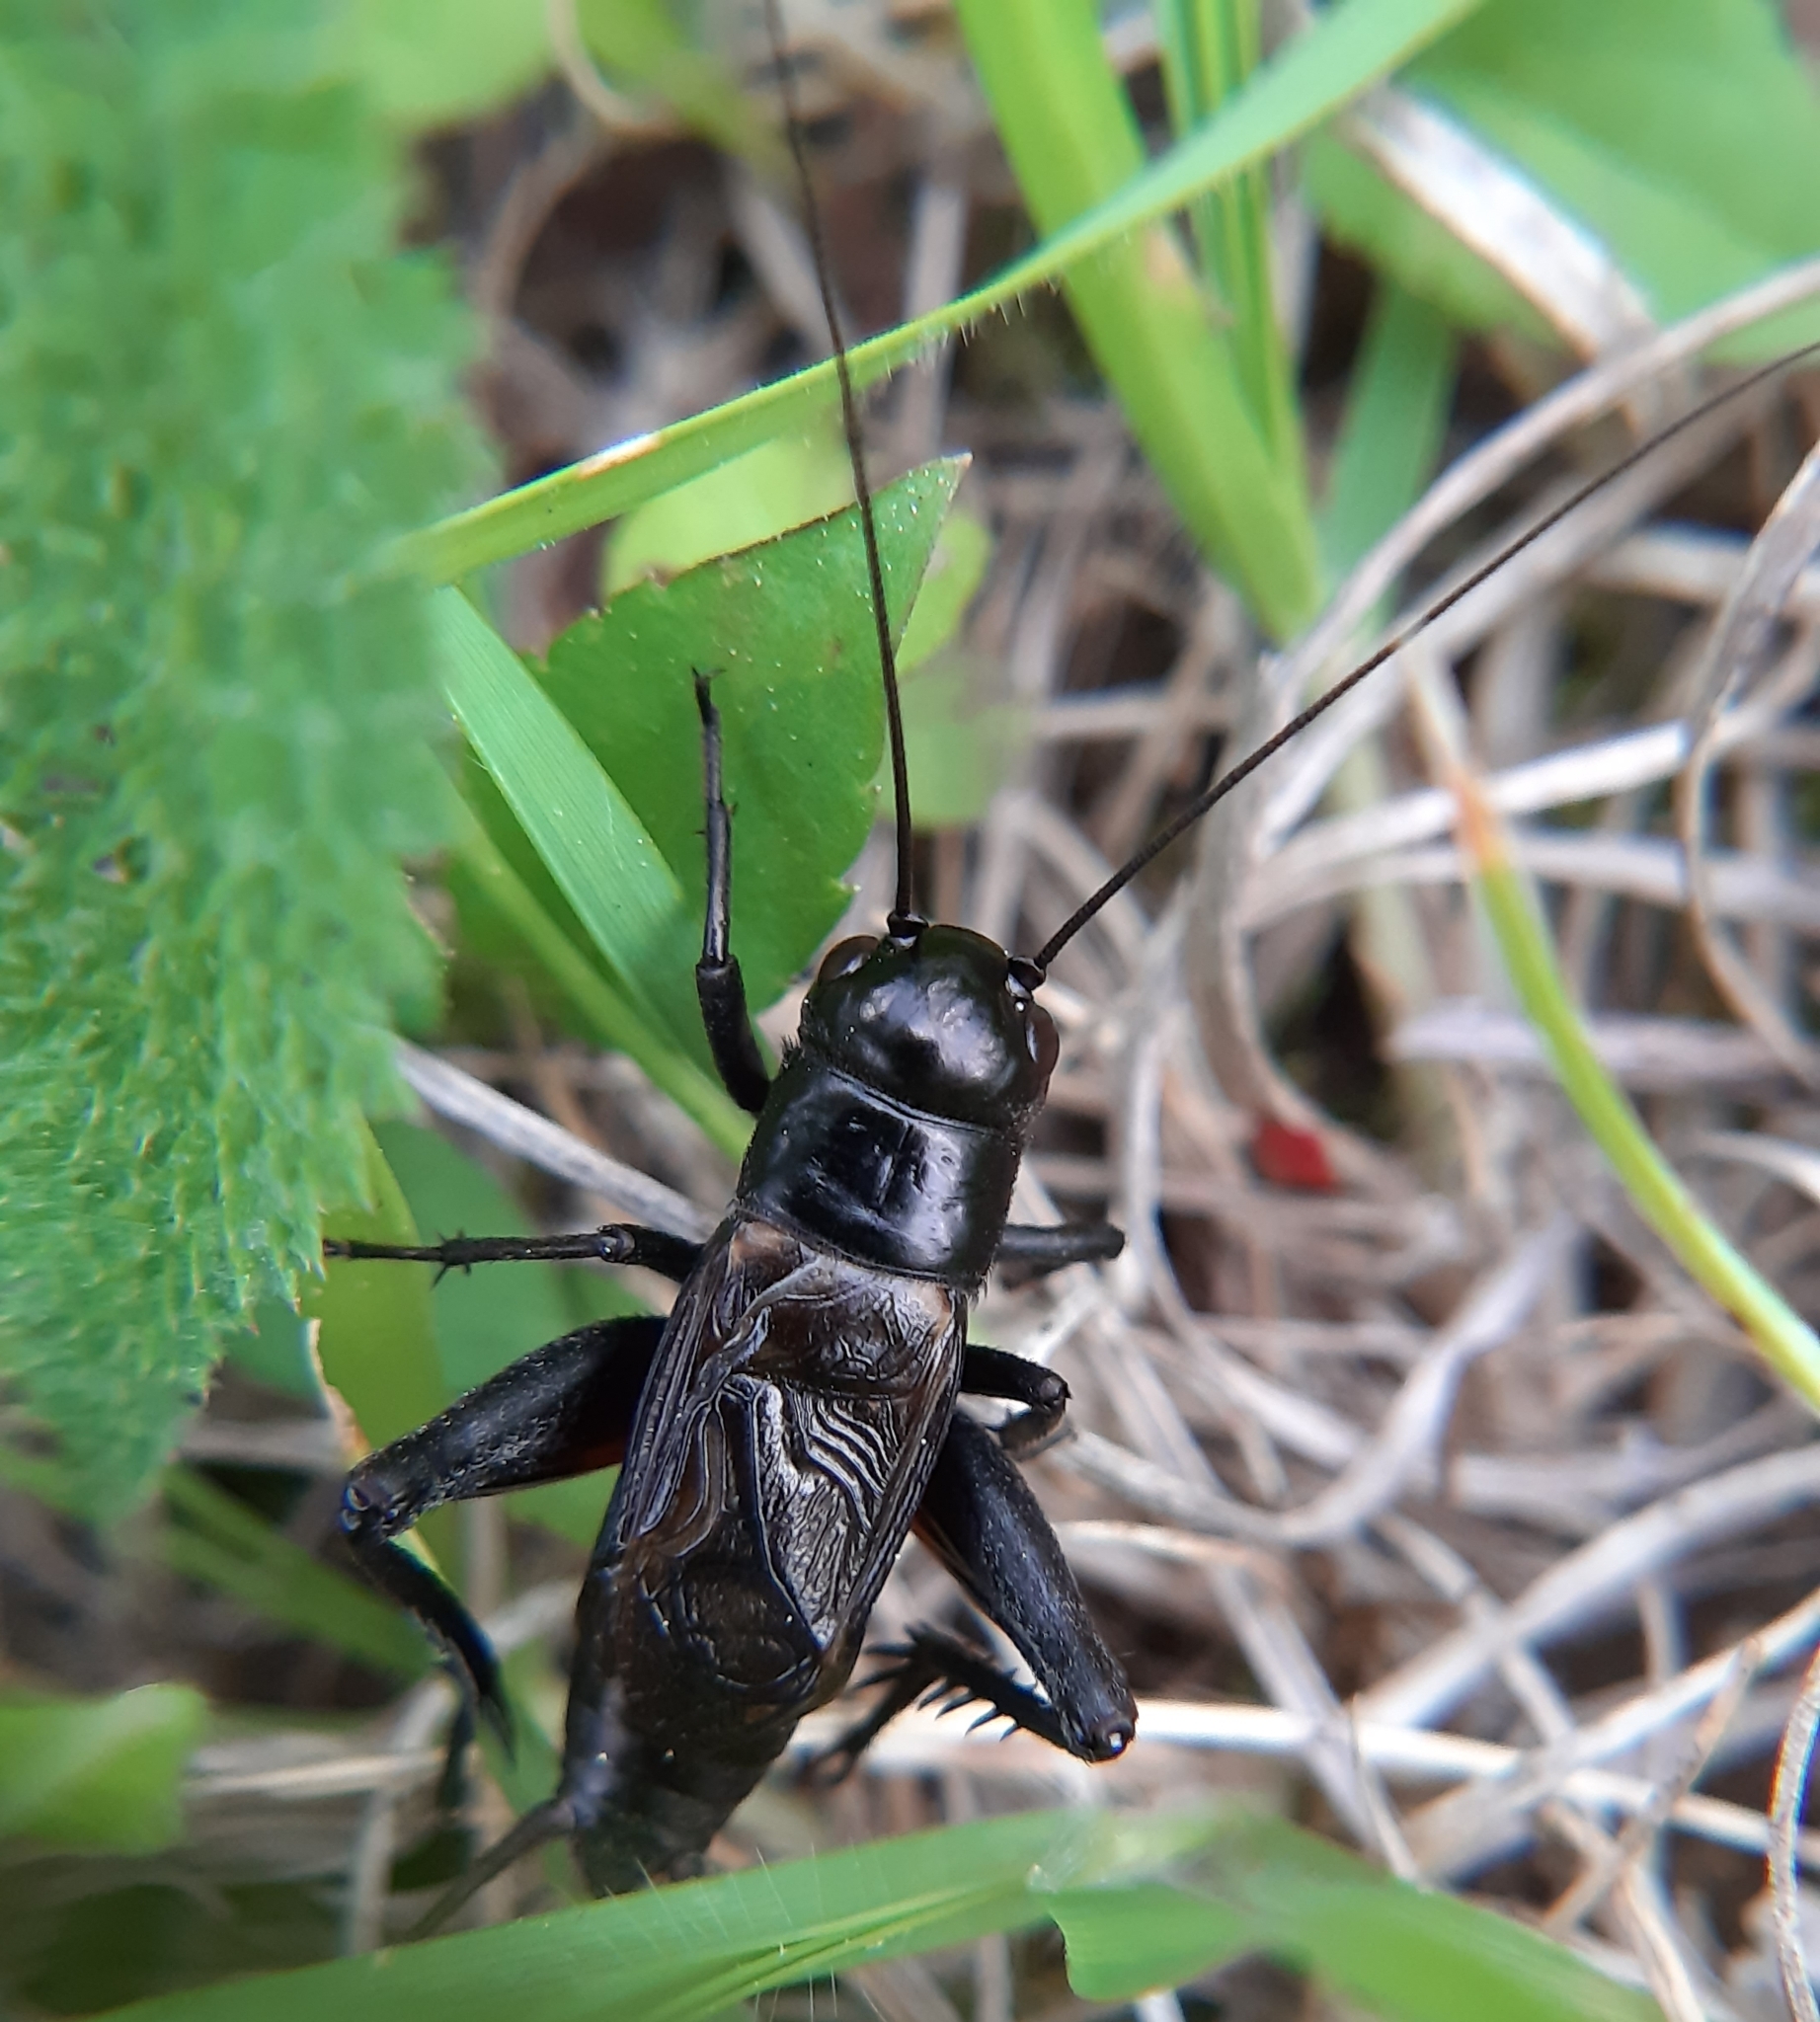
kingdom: Animalia
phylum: Arthropoda
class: Insecta
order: Orthoptera
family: Gryllidae
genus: Gryllus
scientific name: Gryllus veletis
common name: Spring field cricket
